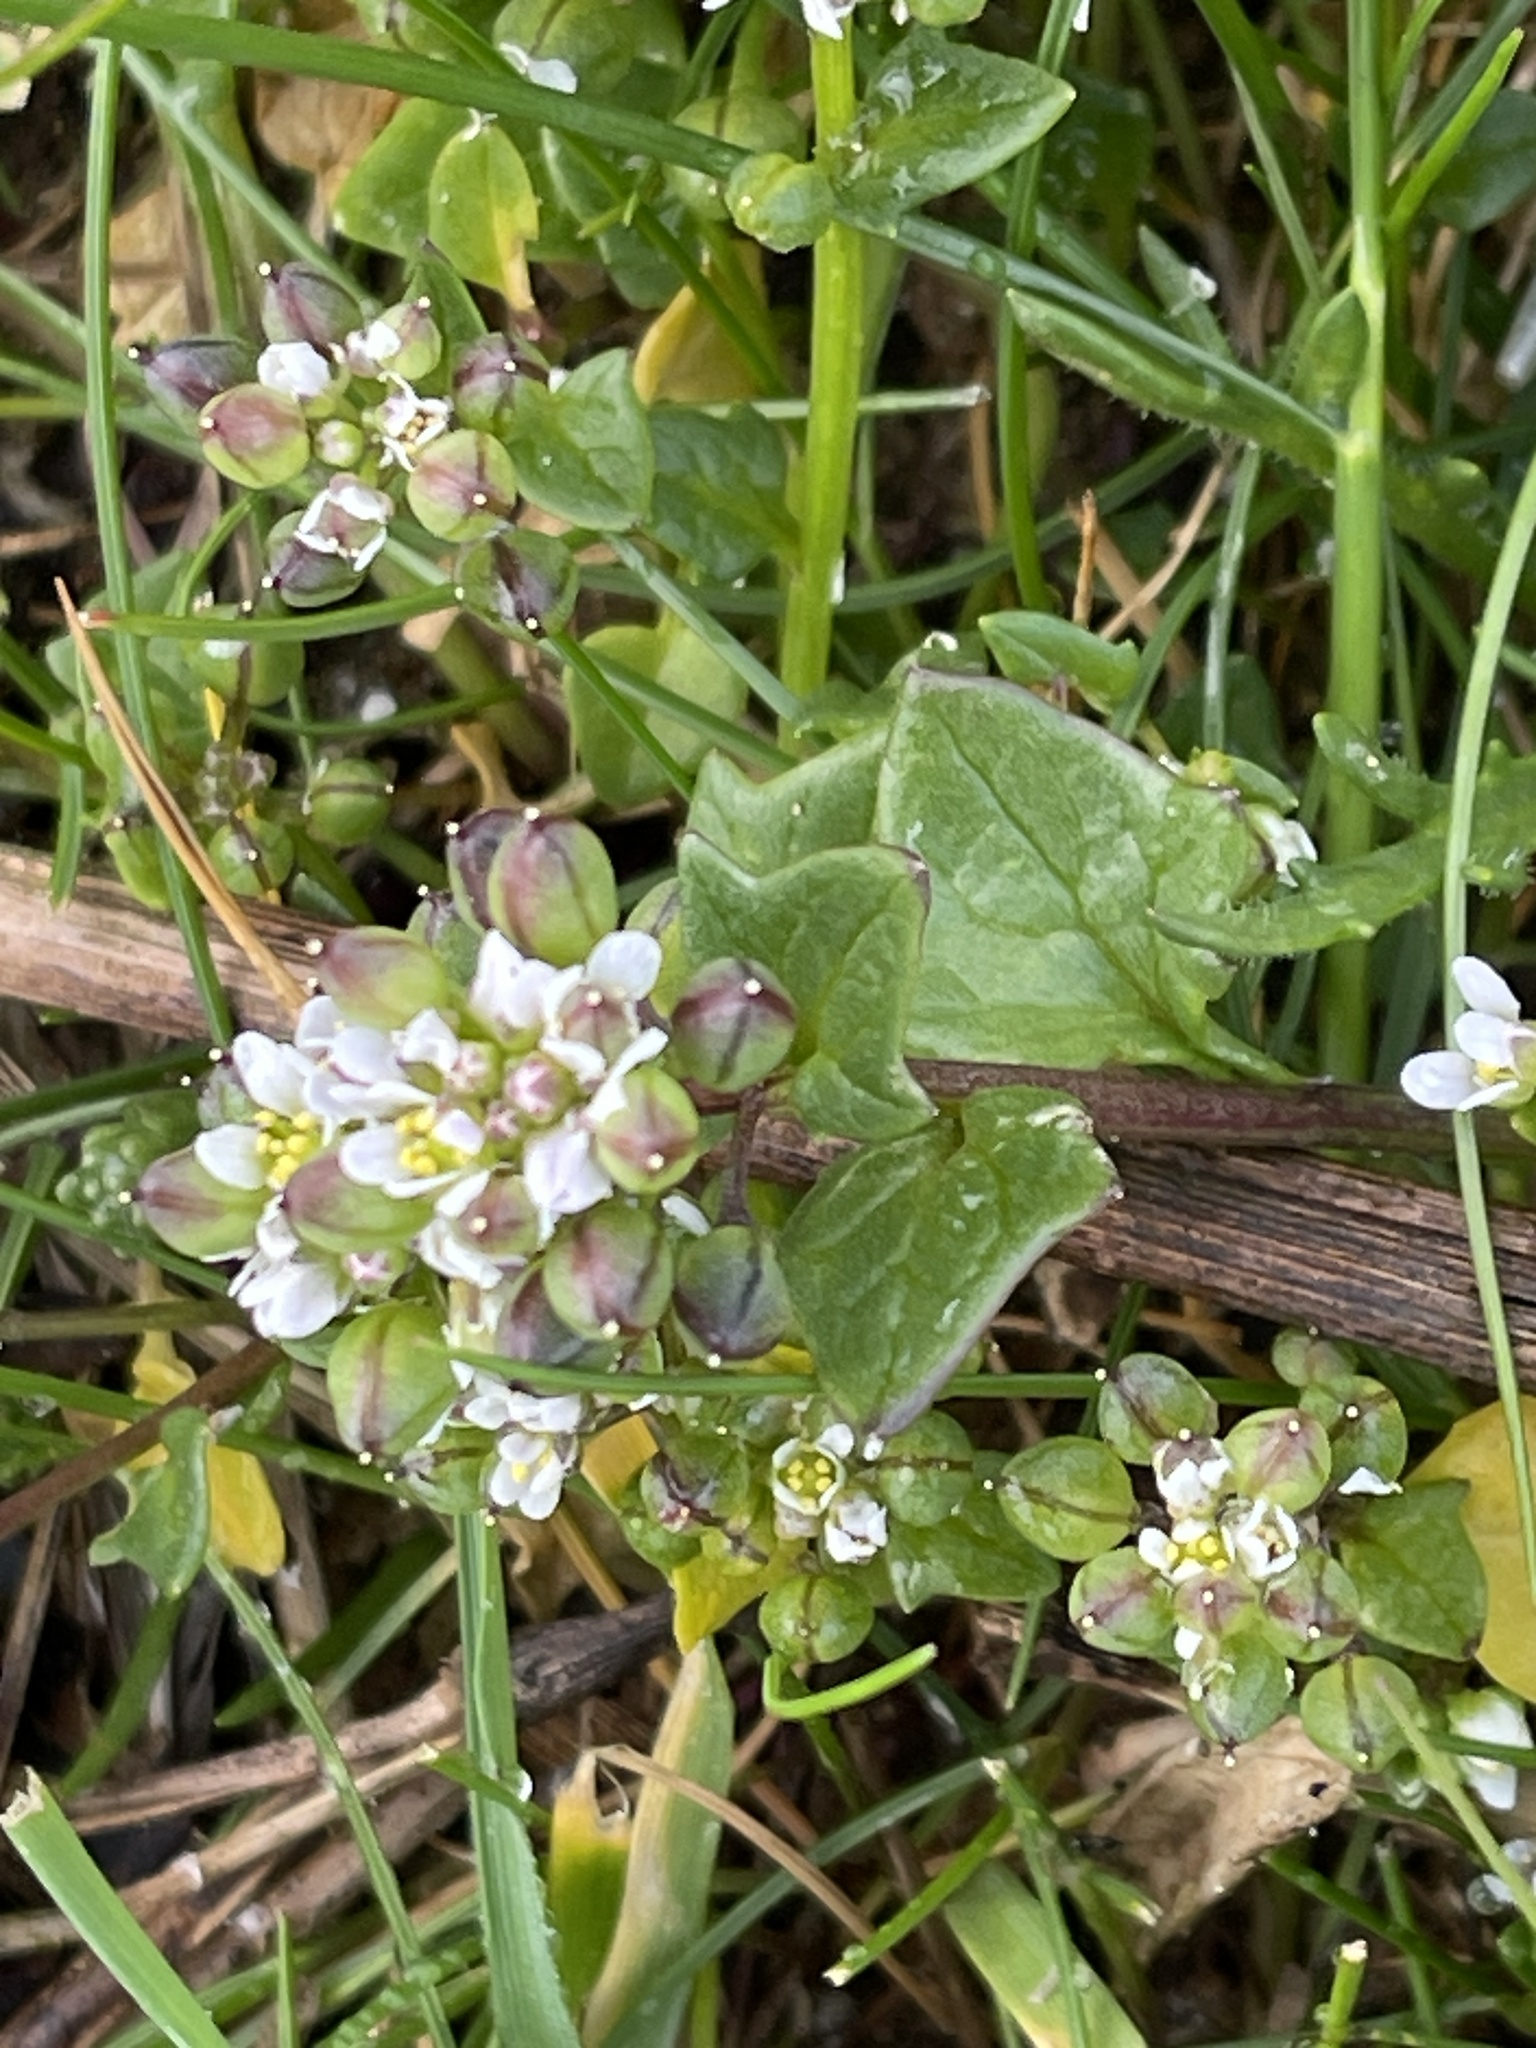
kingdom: Plantae
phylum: Tracheophyta
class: Magnoliopsida
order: Brassicales
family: Brassicaceae
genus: Cochlearia
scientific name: Cochlearia danica
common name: Early scurvygrass
